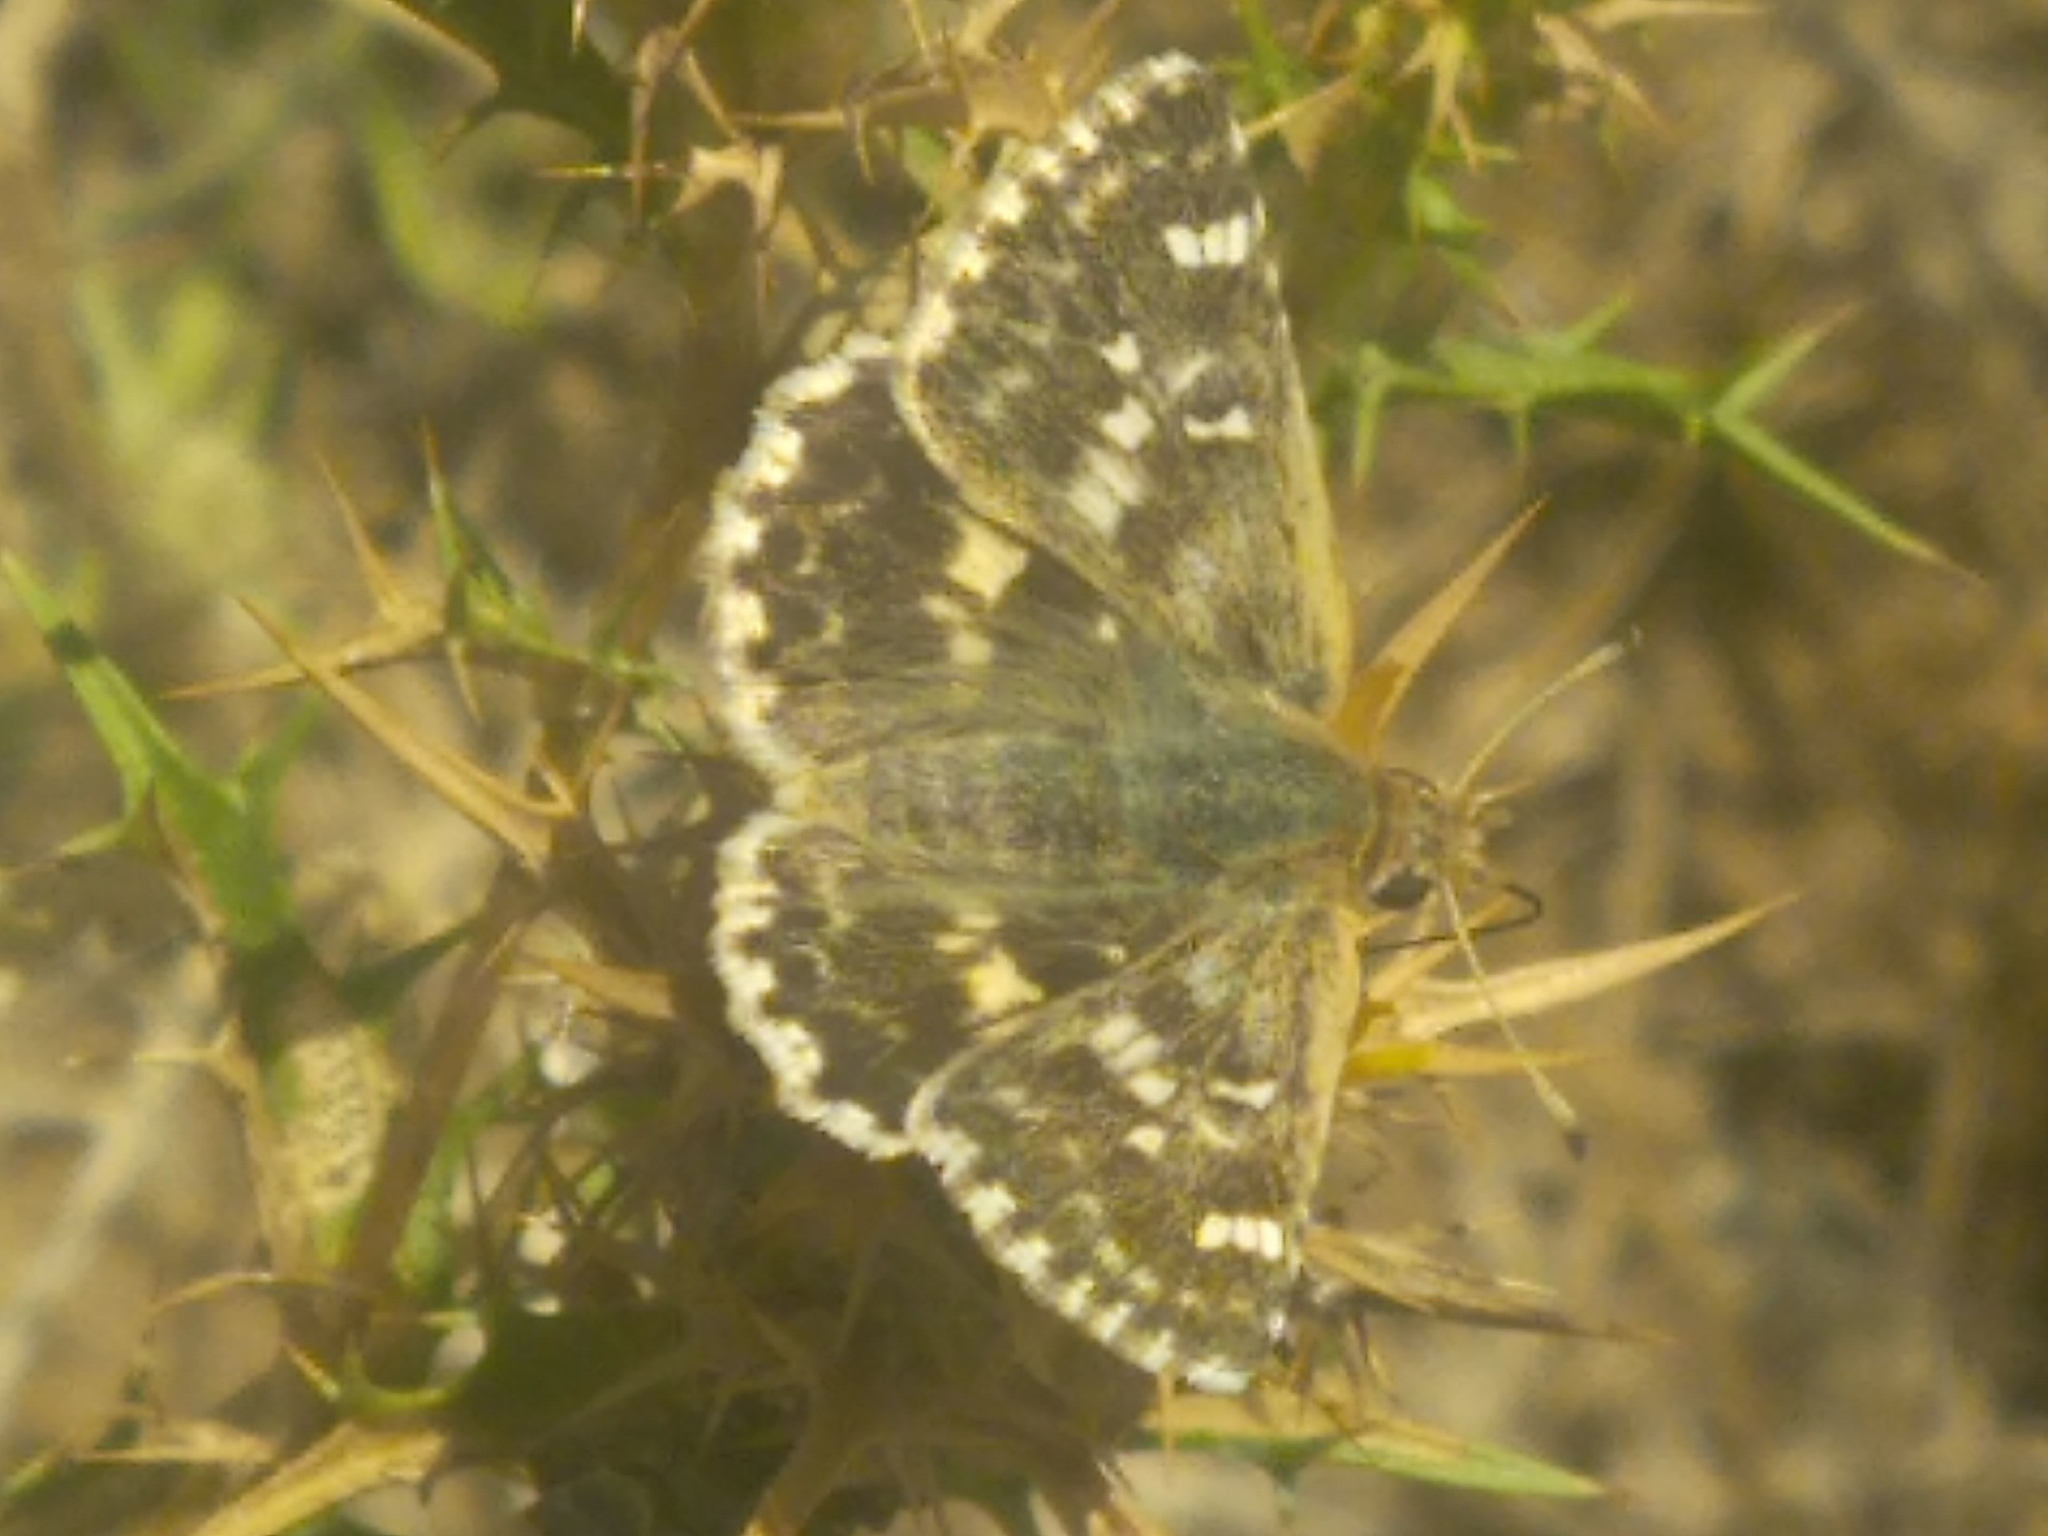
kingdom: Animalia
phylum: Arthropoda
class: Insecta
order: Lepidoptera
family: Hesperiidae
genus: Syrichtus
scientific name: Syrichtus Muschampia proto
